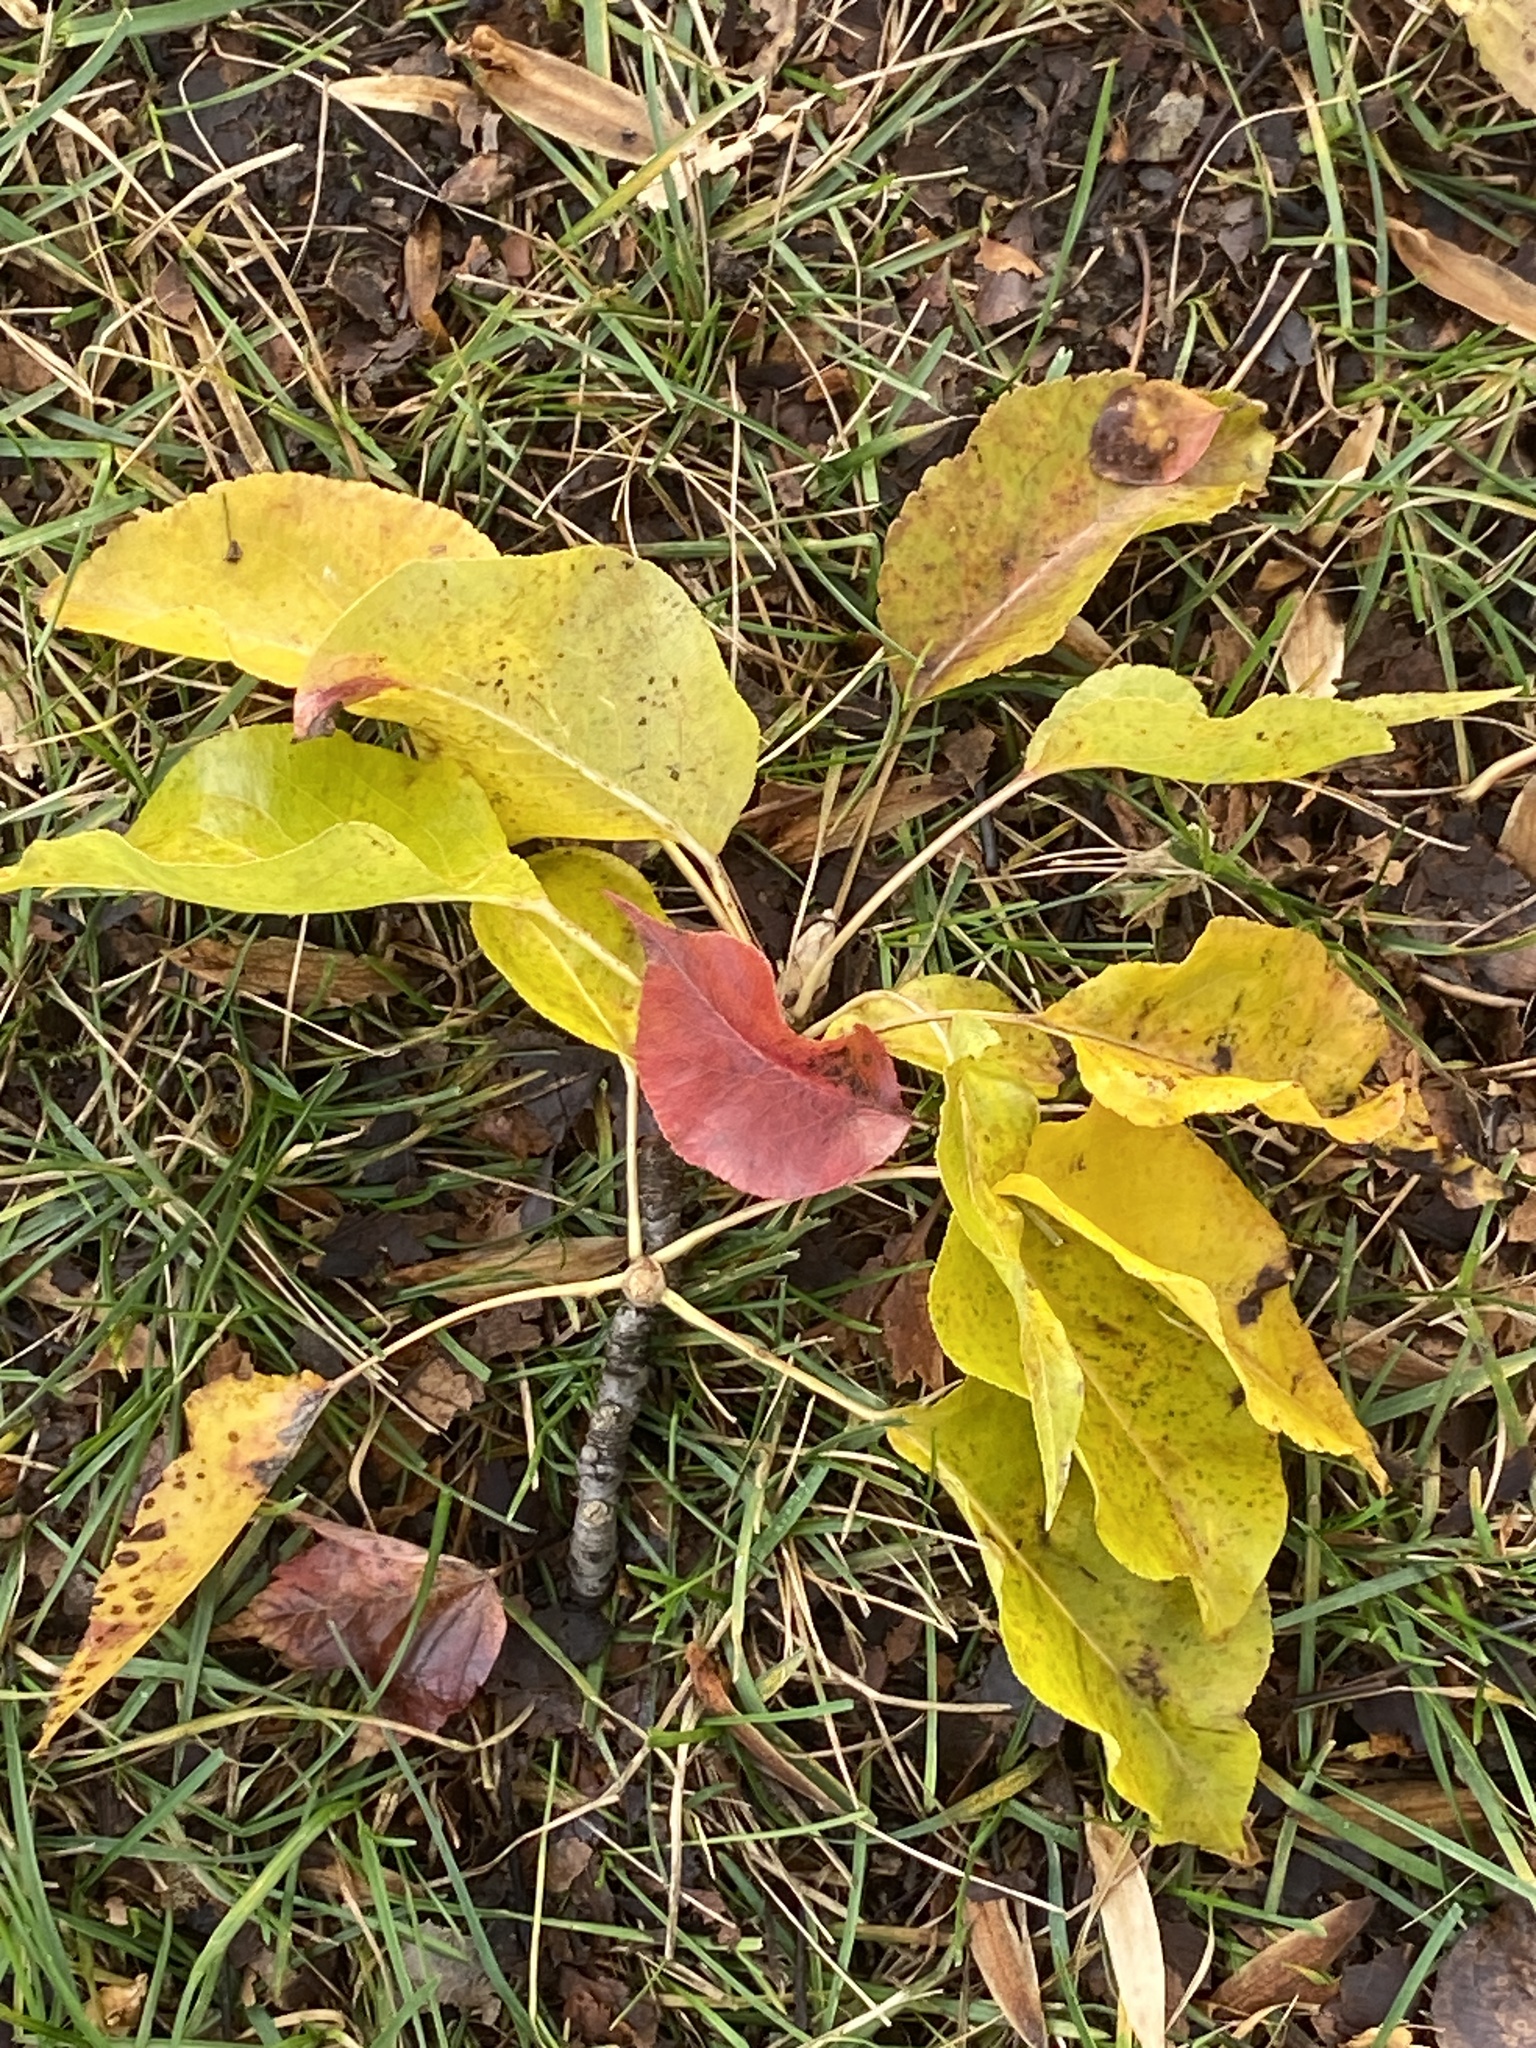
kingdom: Plantae
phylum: Tracheophyta
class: Magnoliopsida
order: Rosales
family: Rosaceae
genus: Pyrus
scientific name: Pyrus calleryana
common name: Callery pear
